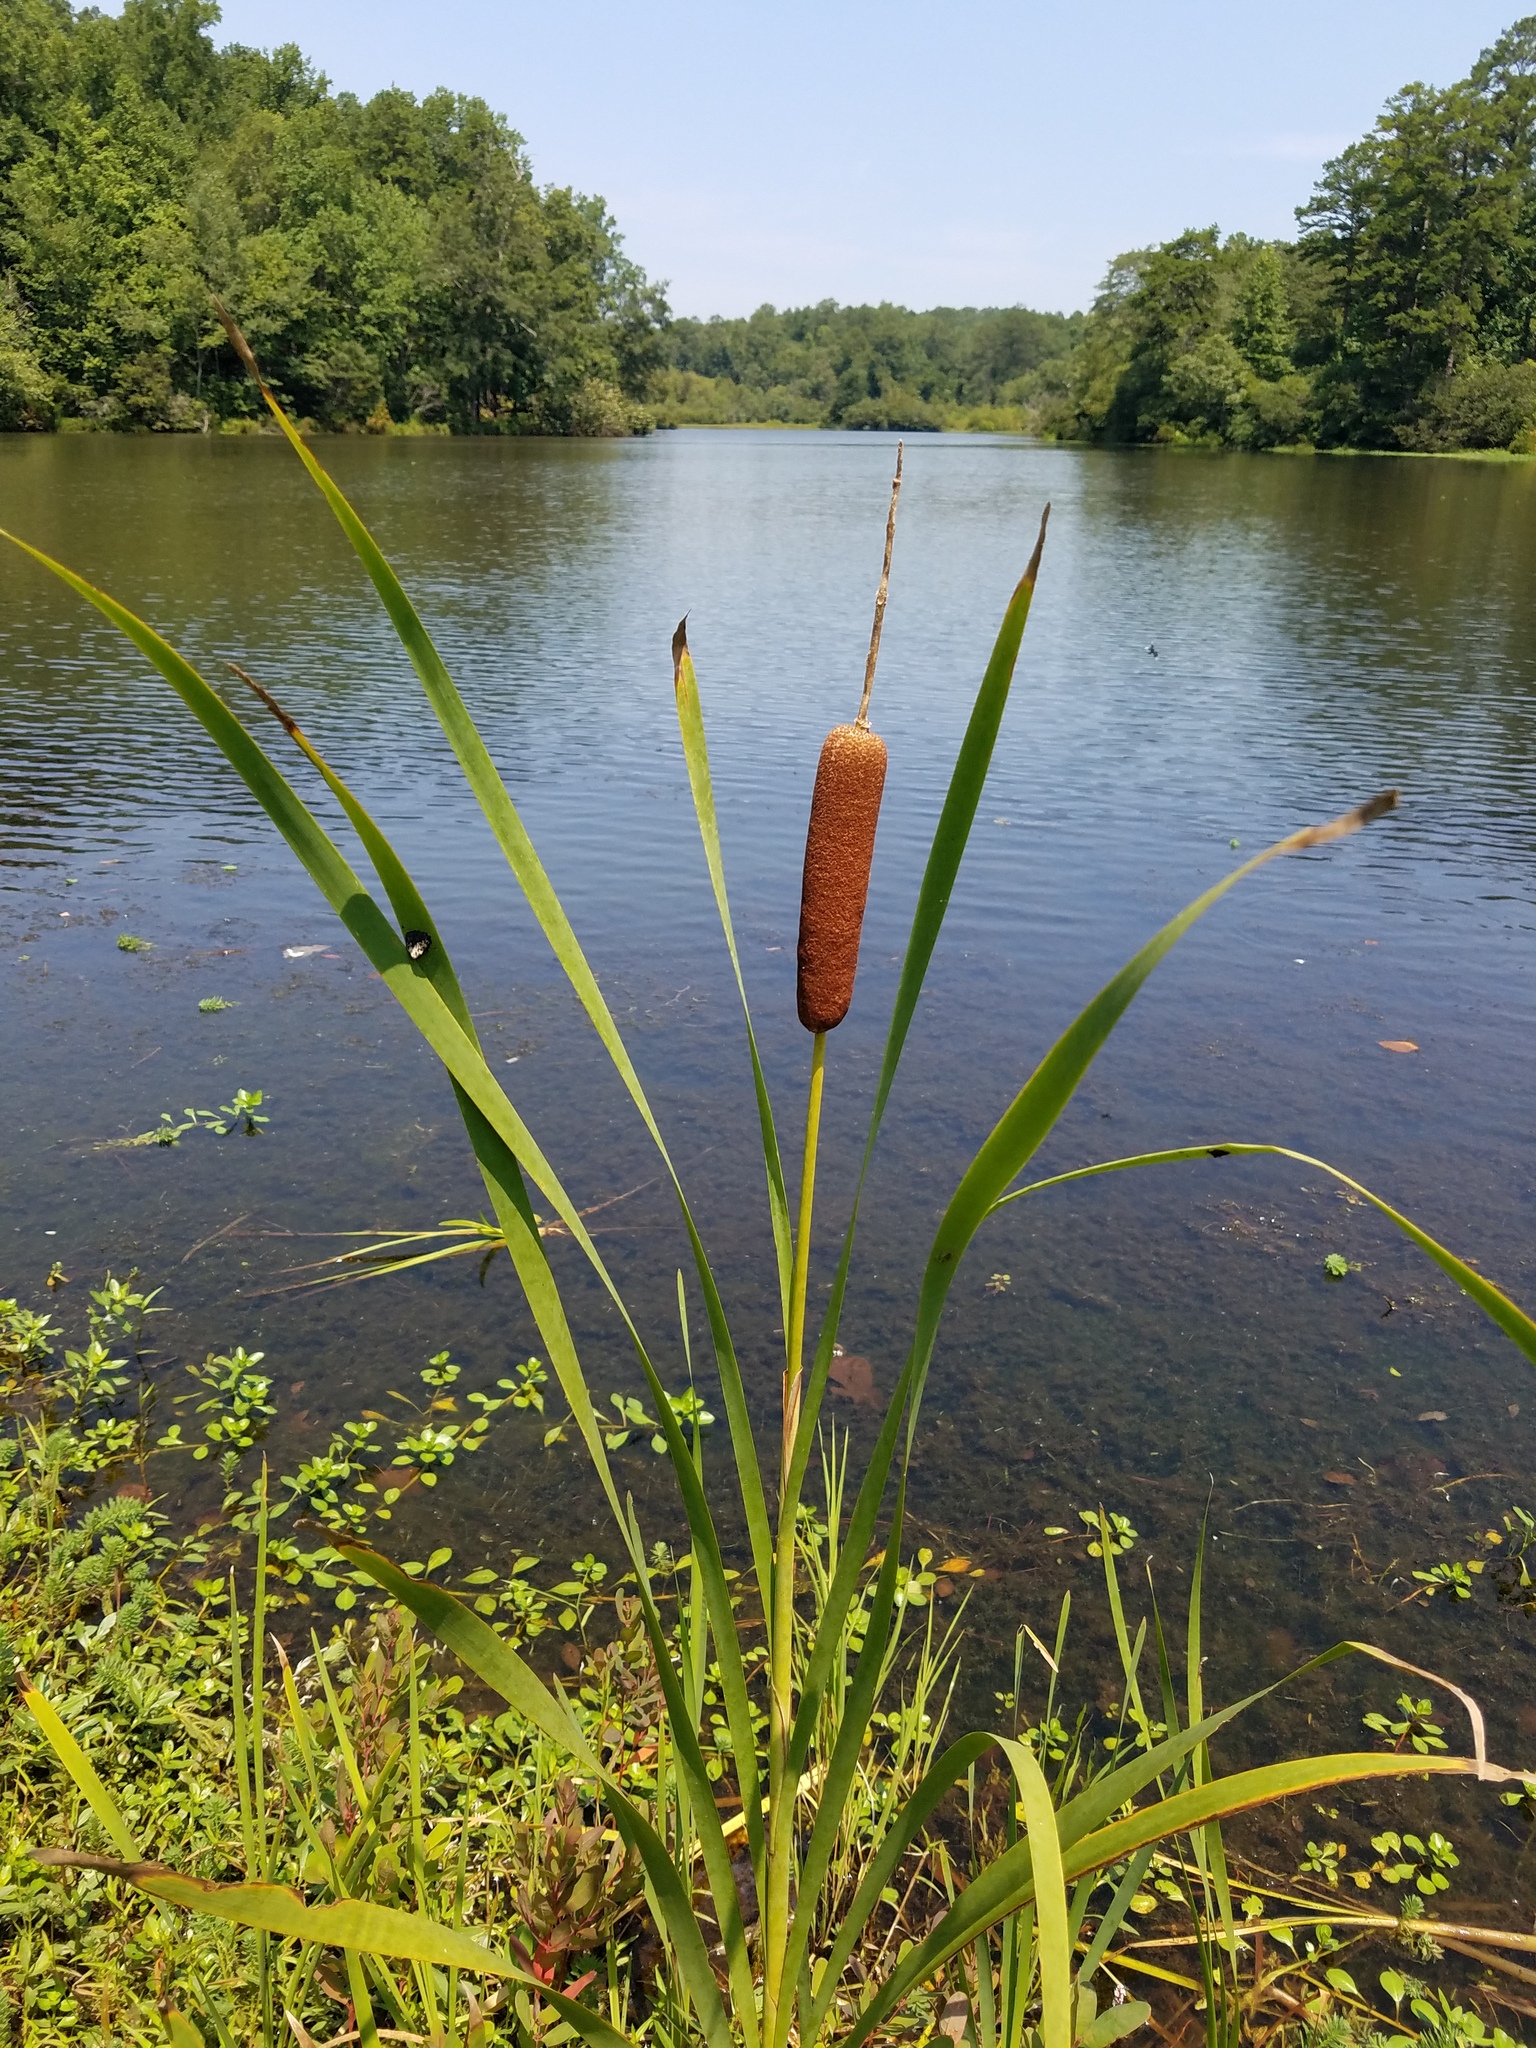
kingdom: Plantae
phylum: Tracheophyta
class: Liliopsida
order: Poales
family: Typhaceae
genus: Typha
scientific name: Typha latifolia
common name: Broadleaf cattail
